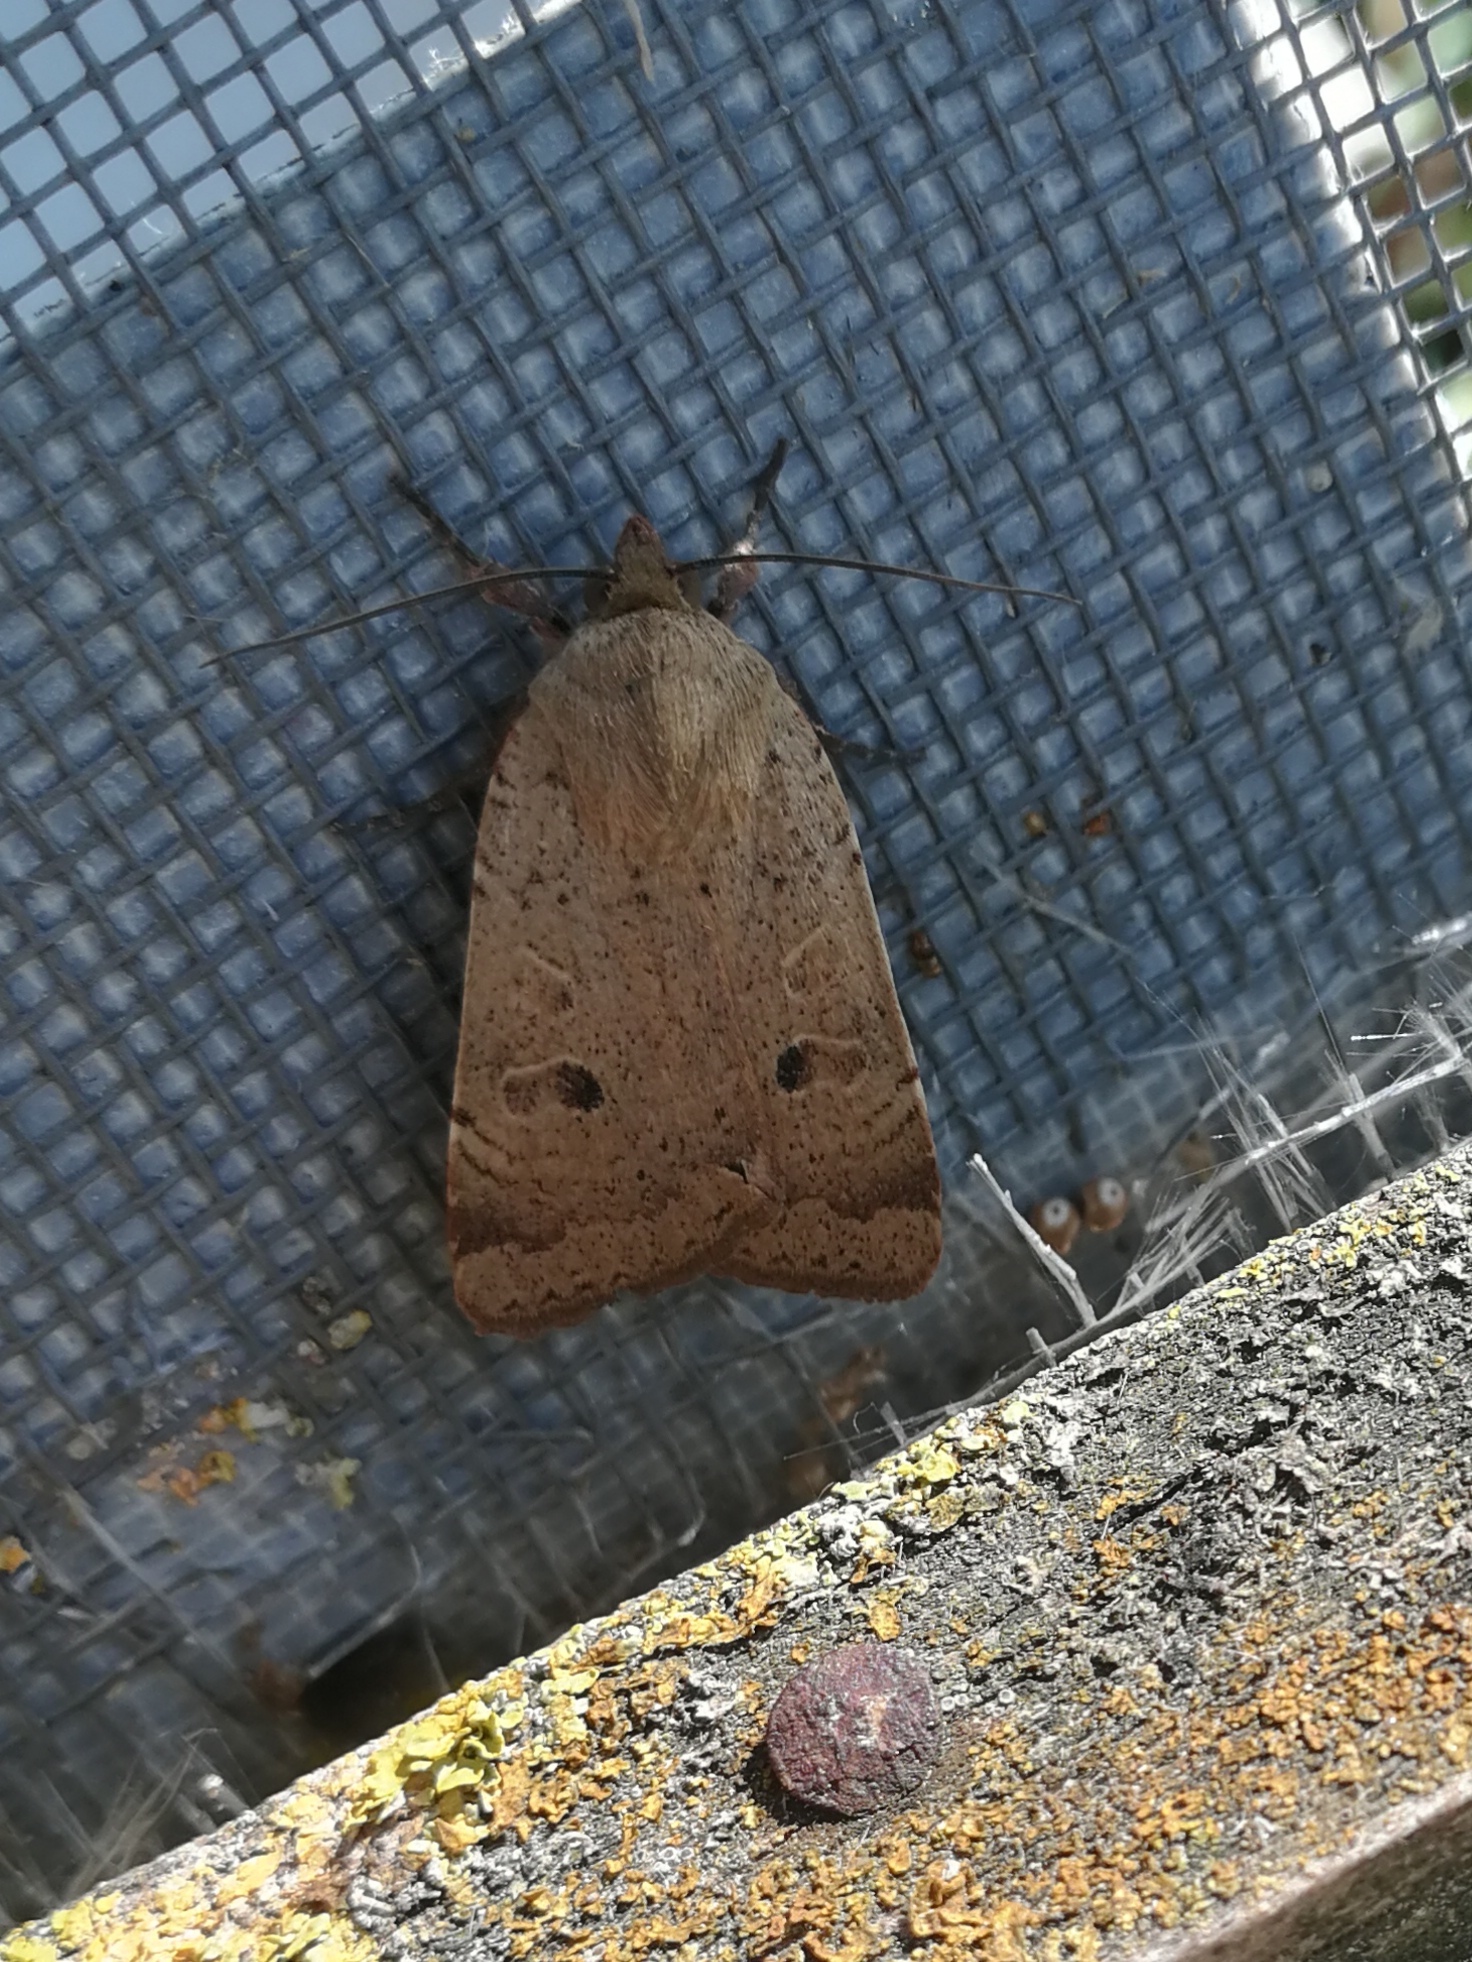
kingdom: Animalia
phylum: Arthropoda
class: Insecta
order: Lepidoptera
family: Noctuidae
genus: Noctua
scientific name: Noctua comes
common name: Lesser yellow underwing
